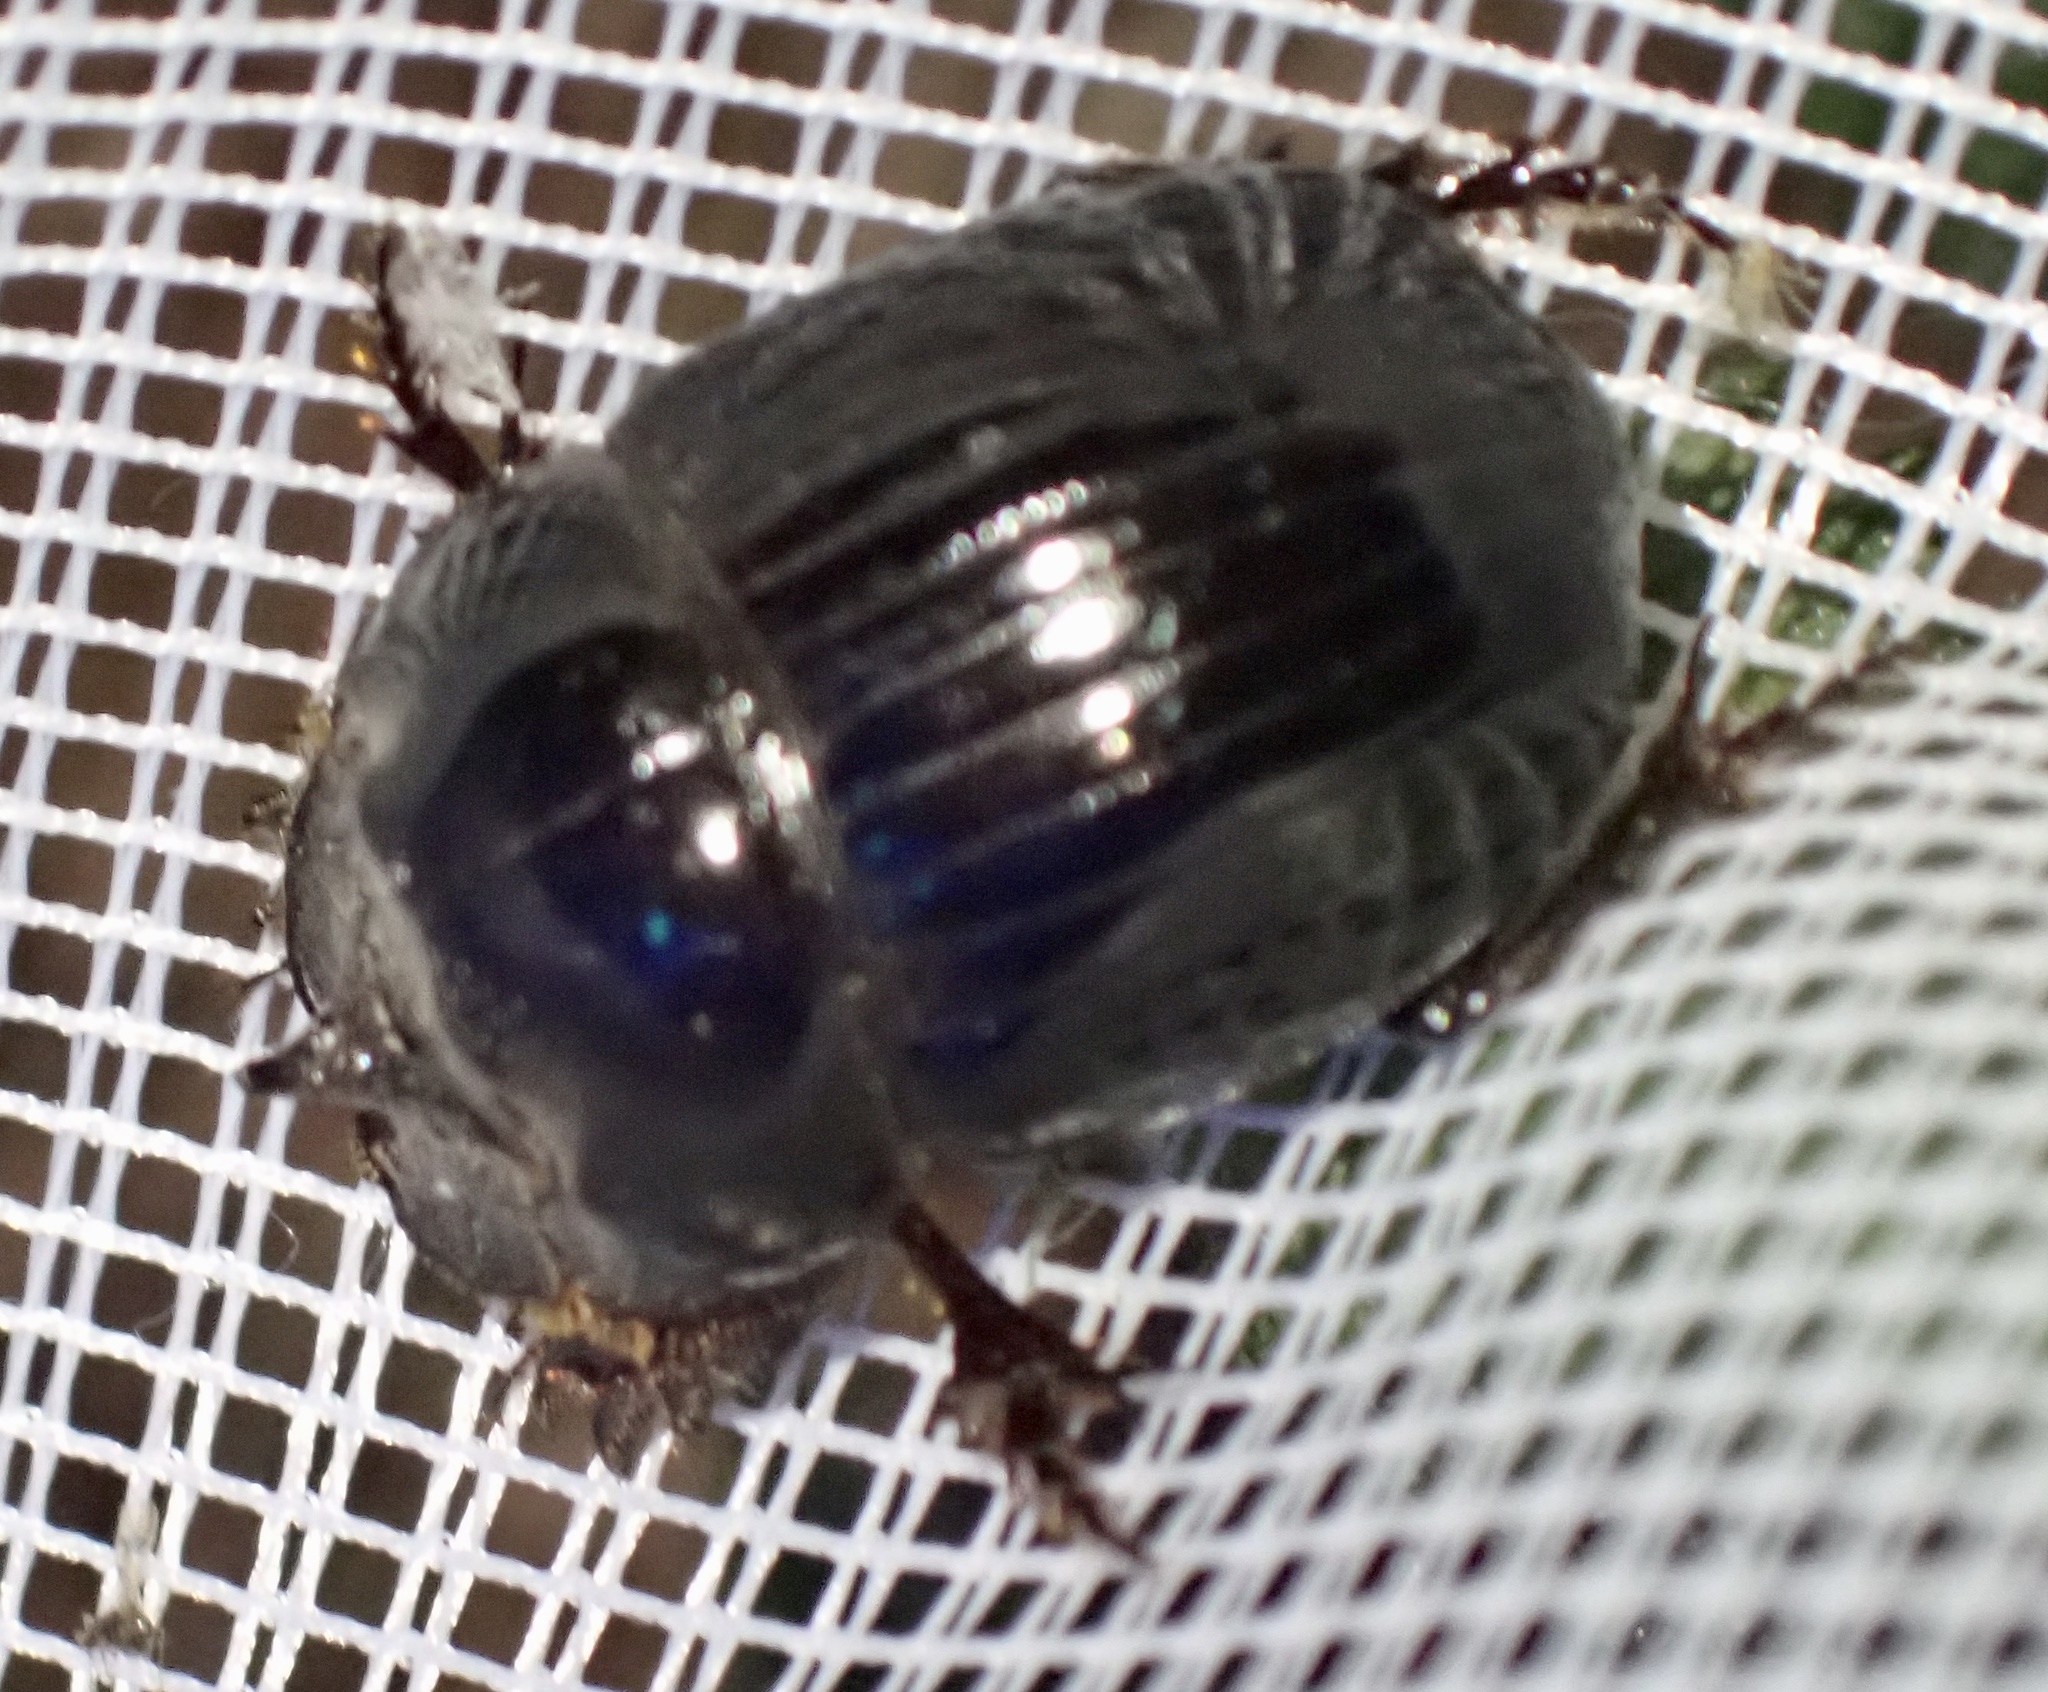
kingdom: Animalia
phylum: Arthropoda
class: Insecta
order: Coleoptera
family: Scarabaeidae
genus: Copris
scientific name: Copris lunaris
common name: Horned dung beetle
